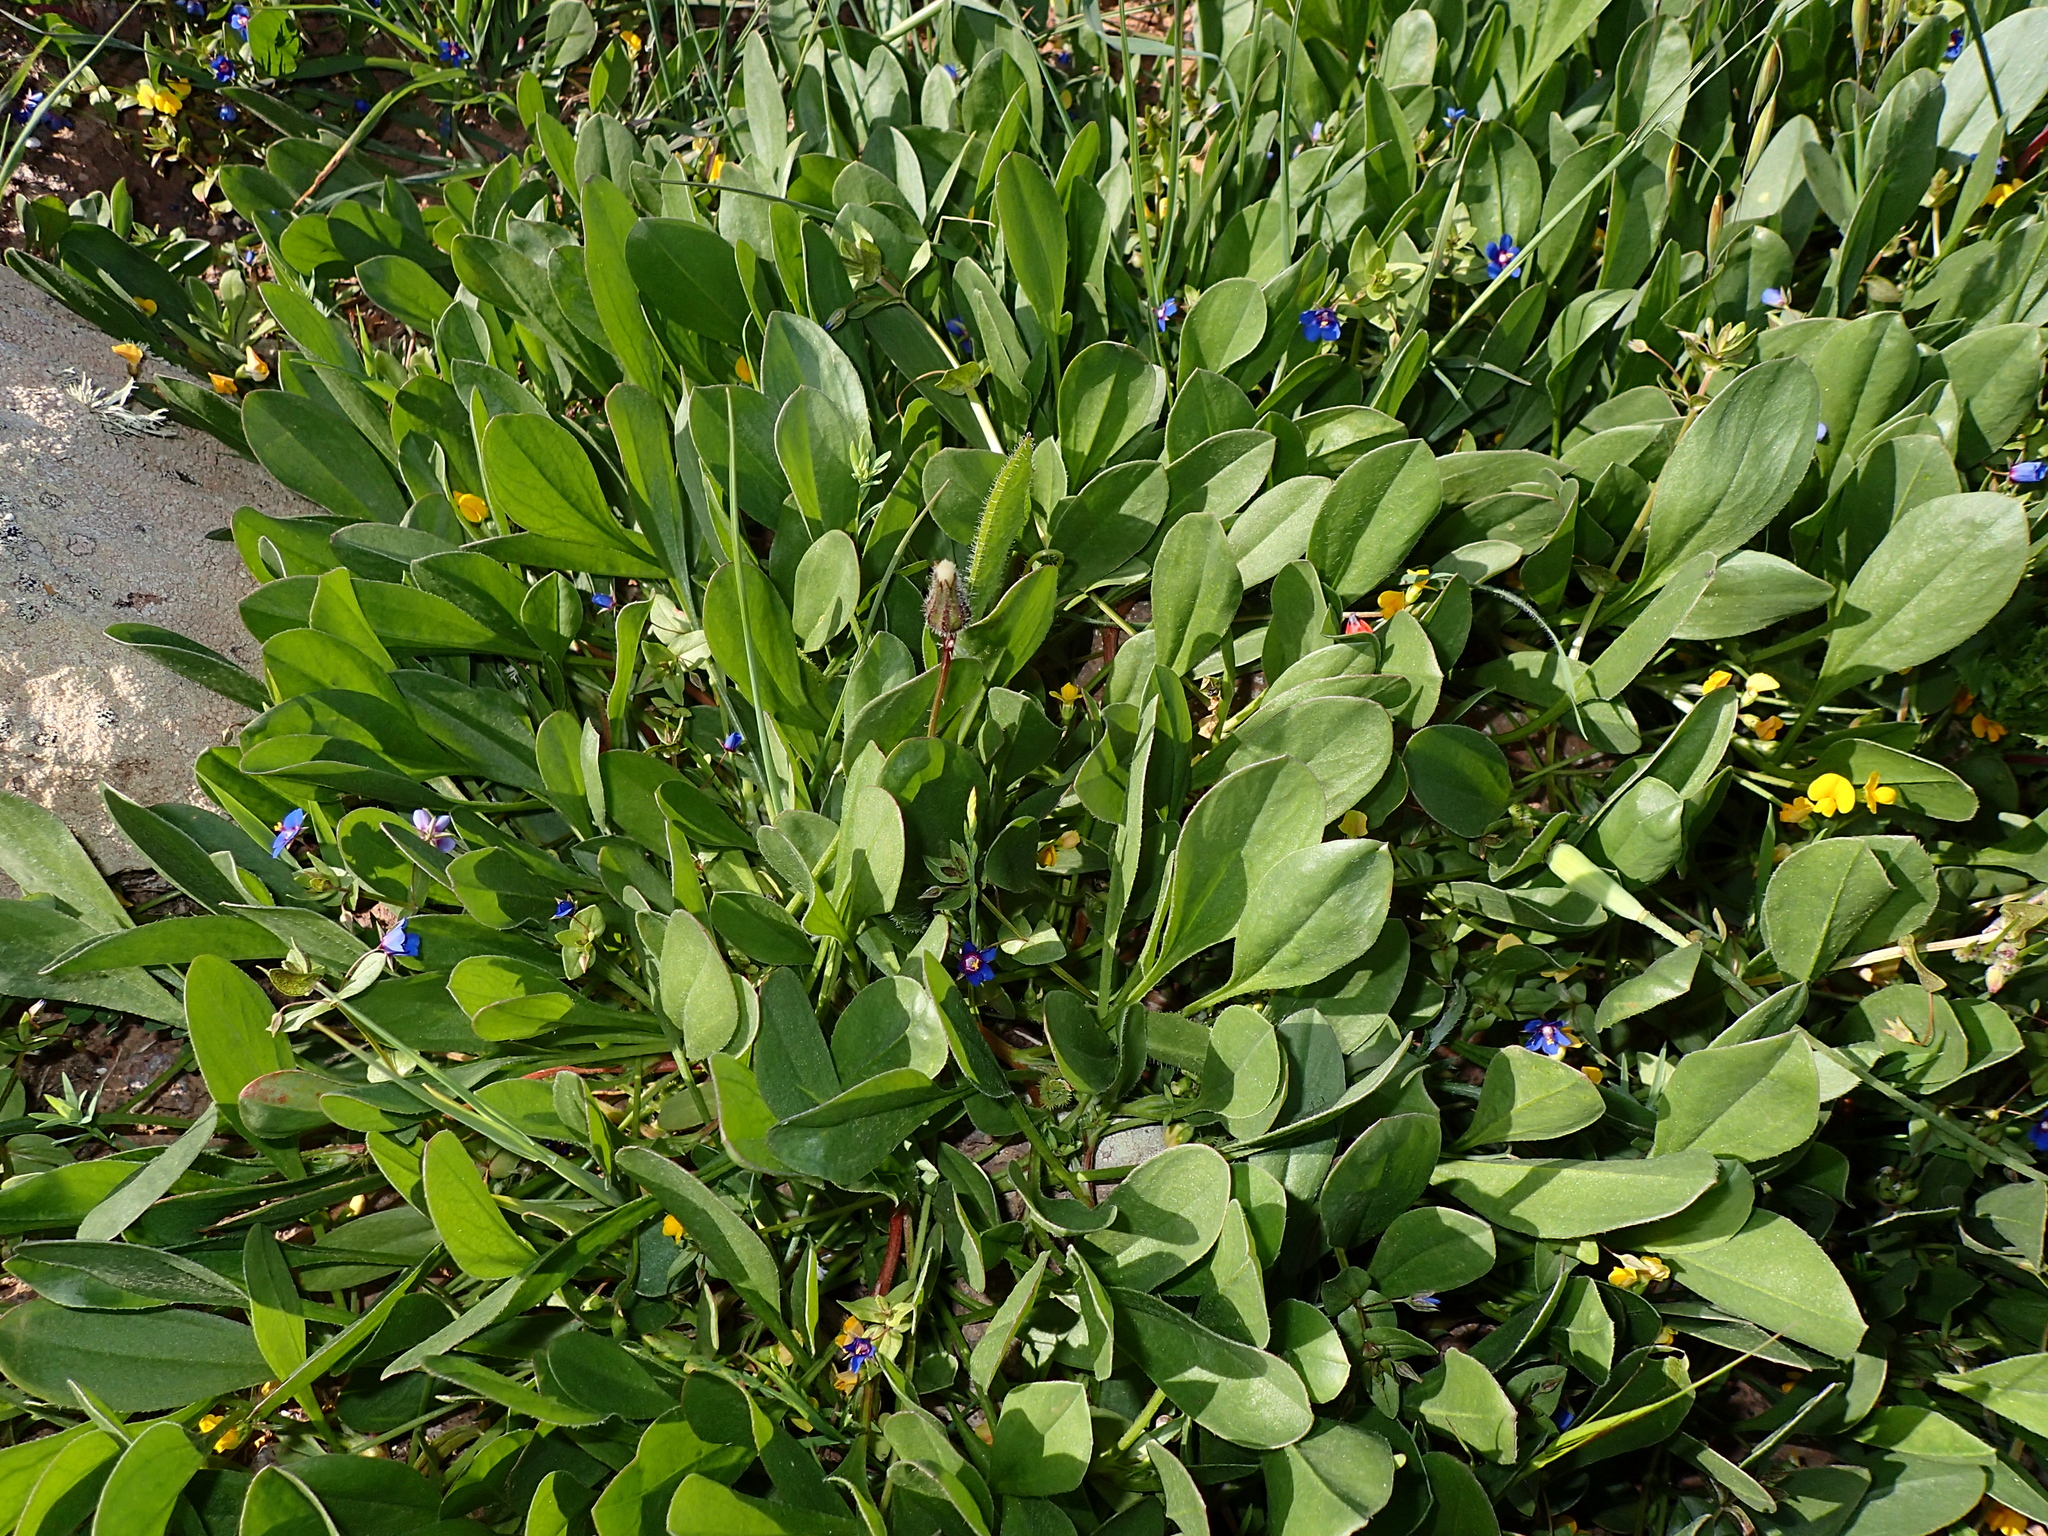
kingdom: Plantae
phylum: Tracheophyta
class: Magnoliopsida
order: Fabales
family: Fabaceae
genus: Scorpiurus
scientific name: Scorpiurus muricatus
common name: Caterpillar-plant
